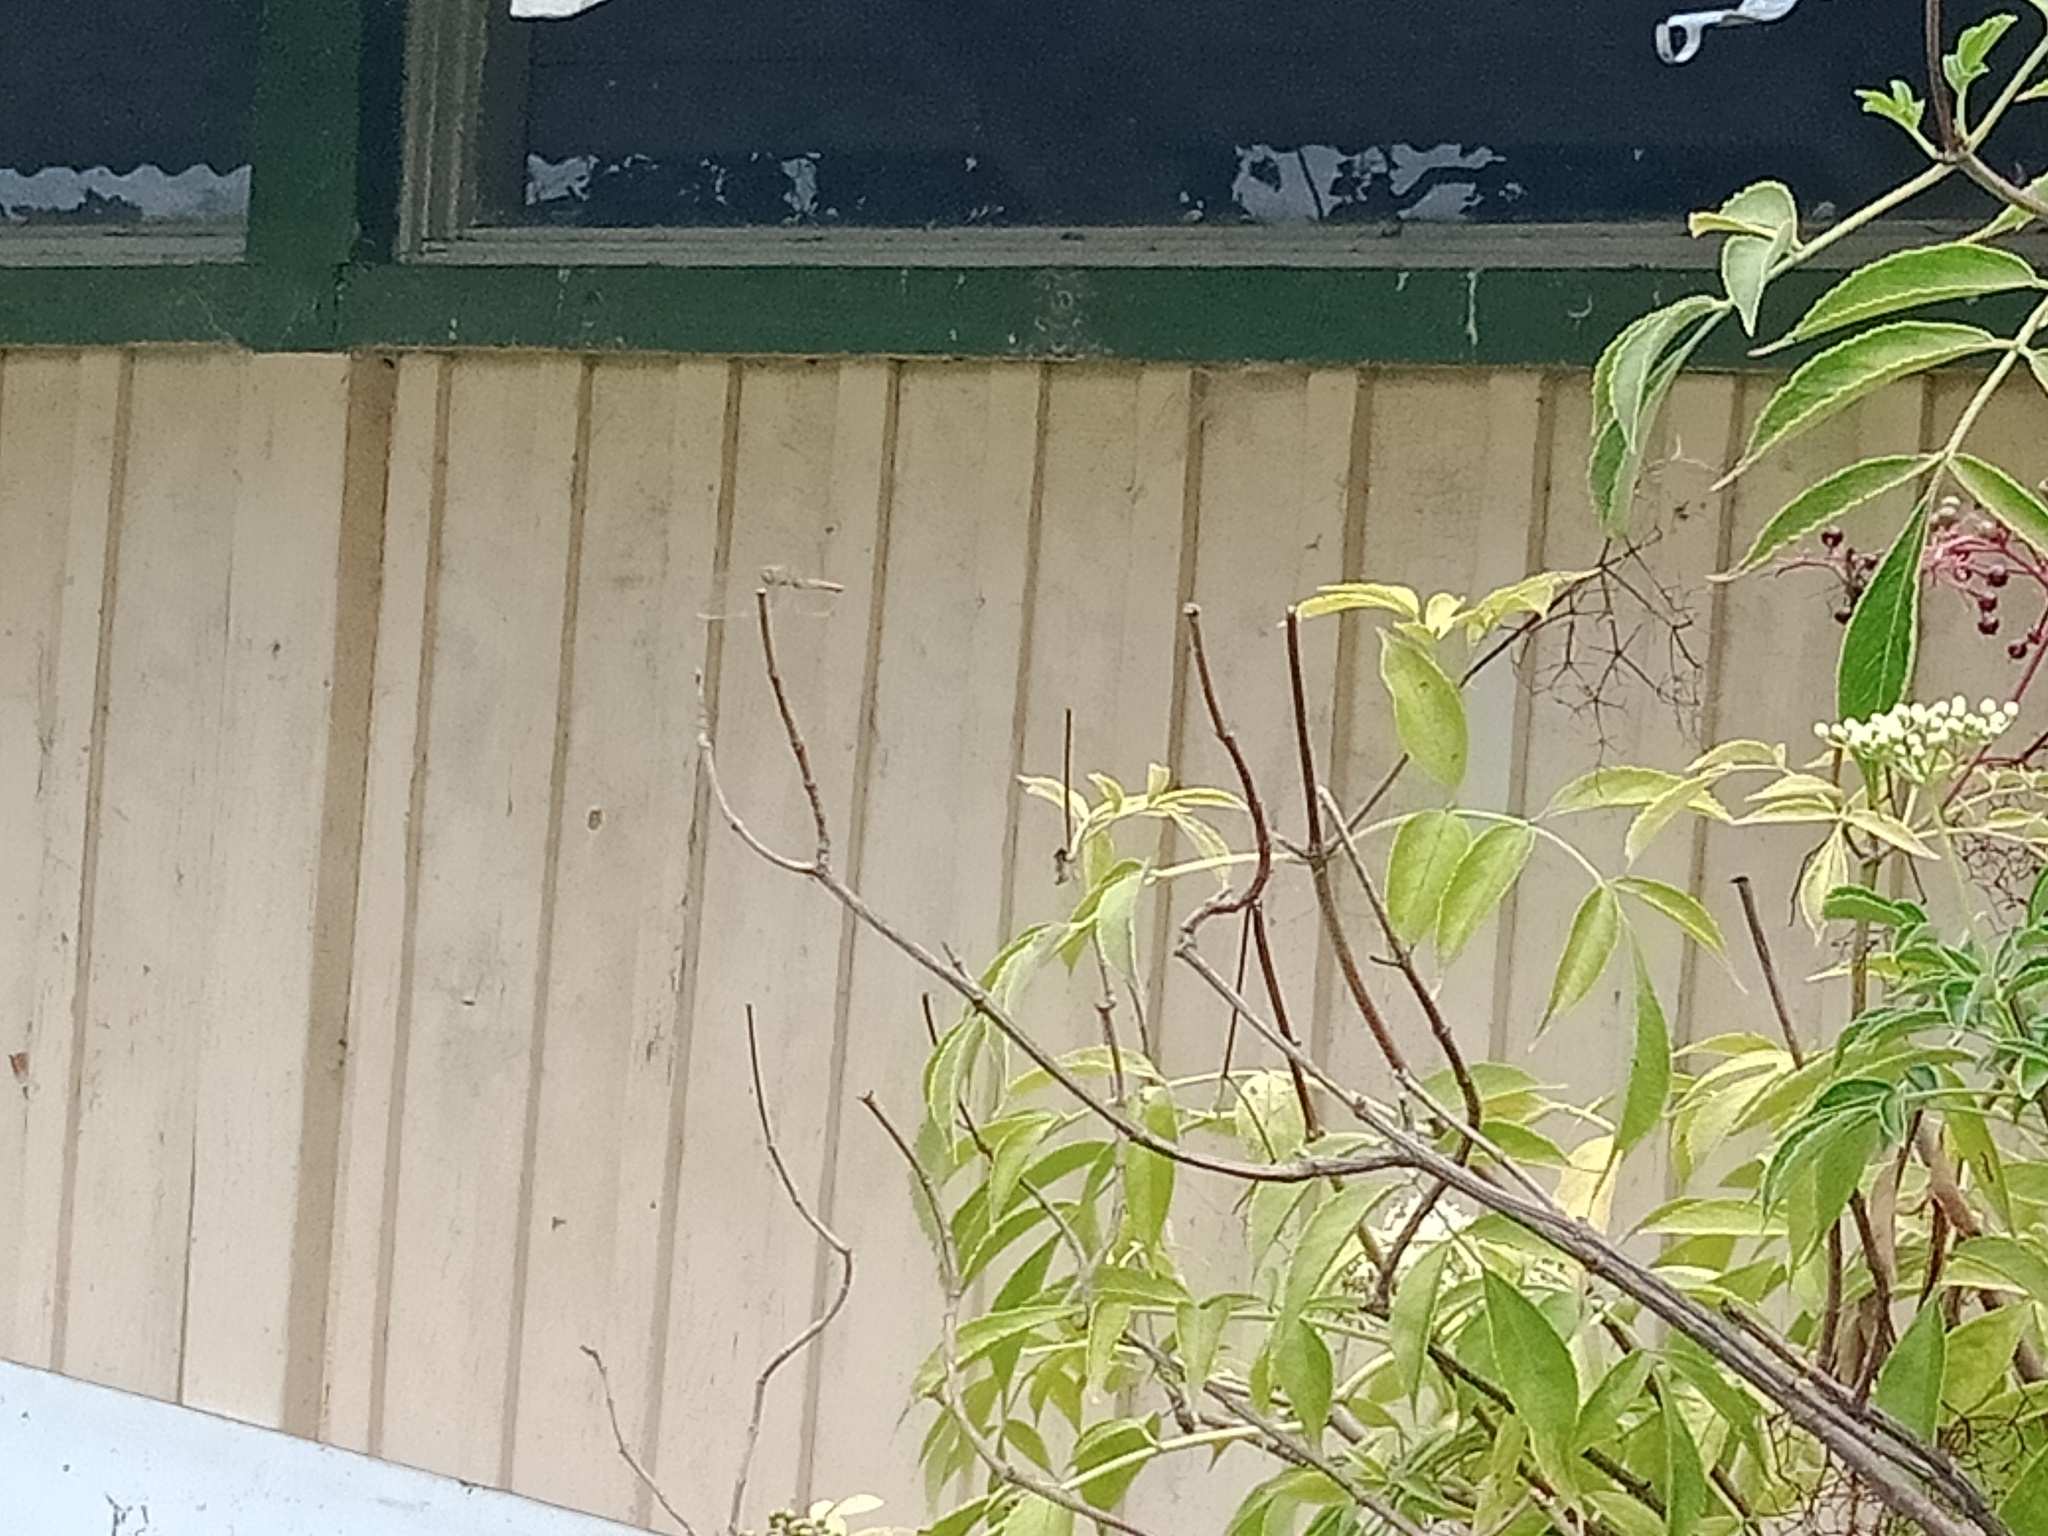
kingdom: Animalia
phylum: Arthropoda
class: Insecta
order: Odonata
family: Libellulidae
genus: Orthetrum
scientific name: Orthetrum villosovittatum
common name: Firery skimmer
